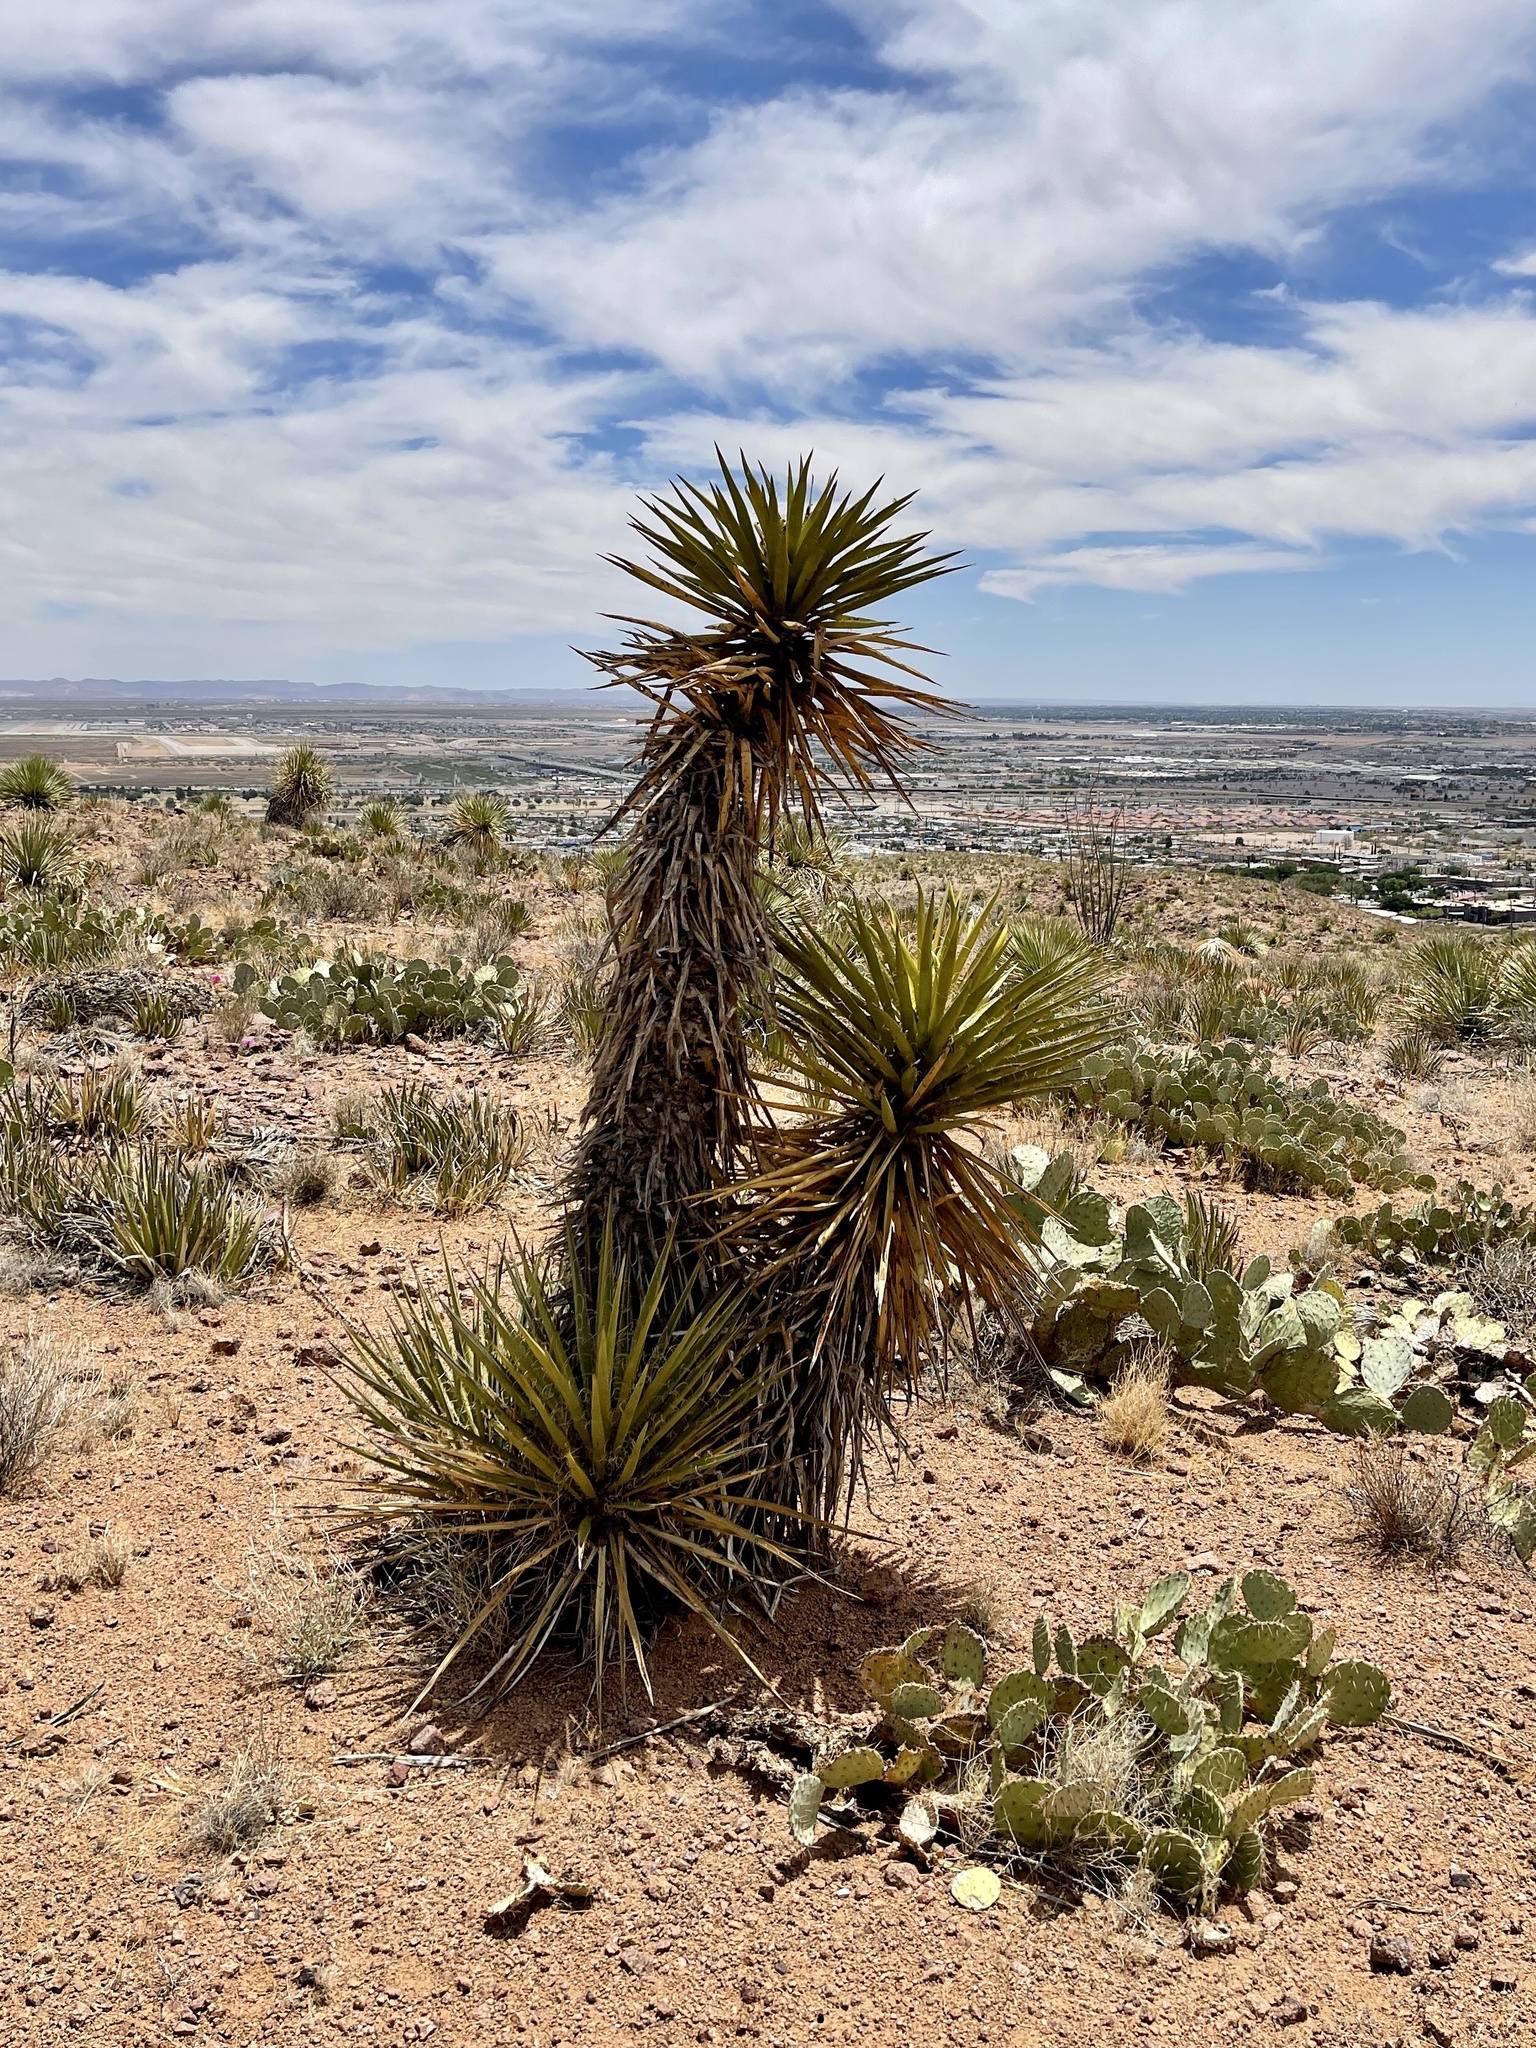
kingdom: Plantae
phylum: Tracheophyta
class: Liliopsida
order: Asparagales
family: Asparagaceae
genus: Yucca
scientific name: Yucca treculiana
